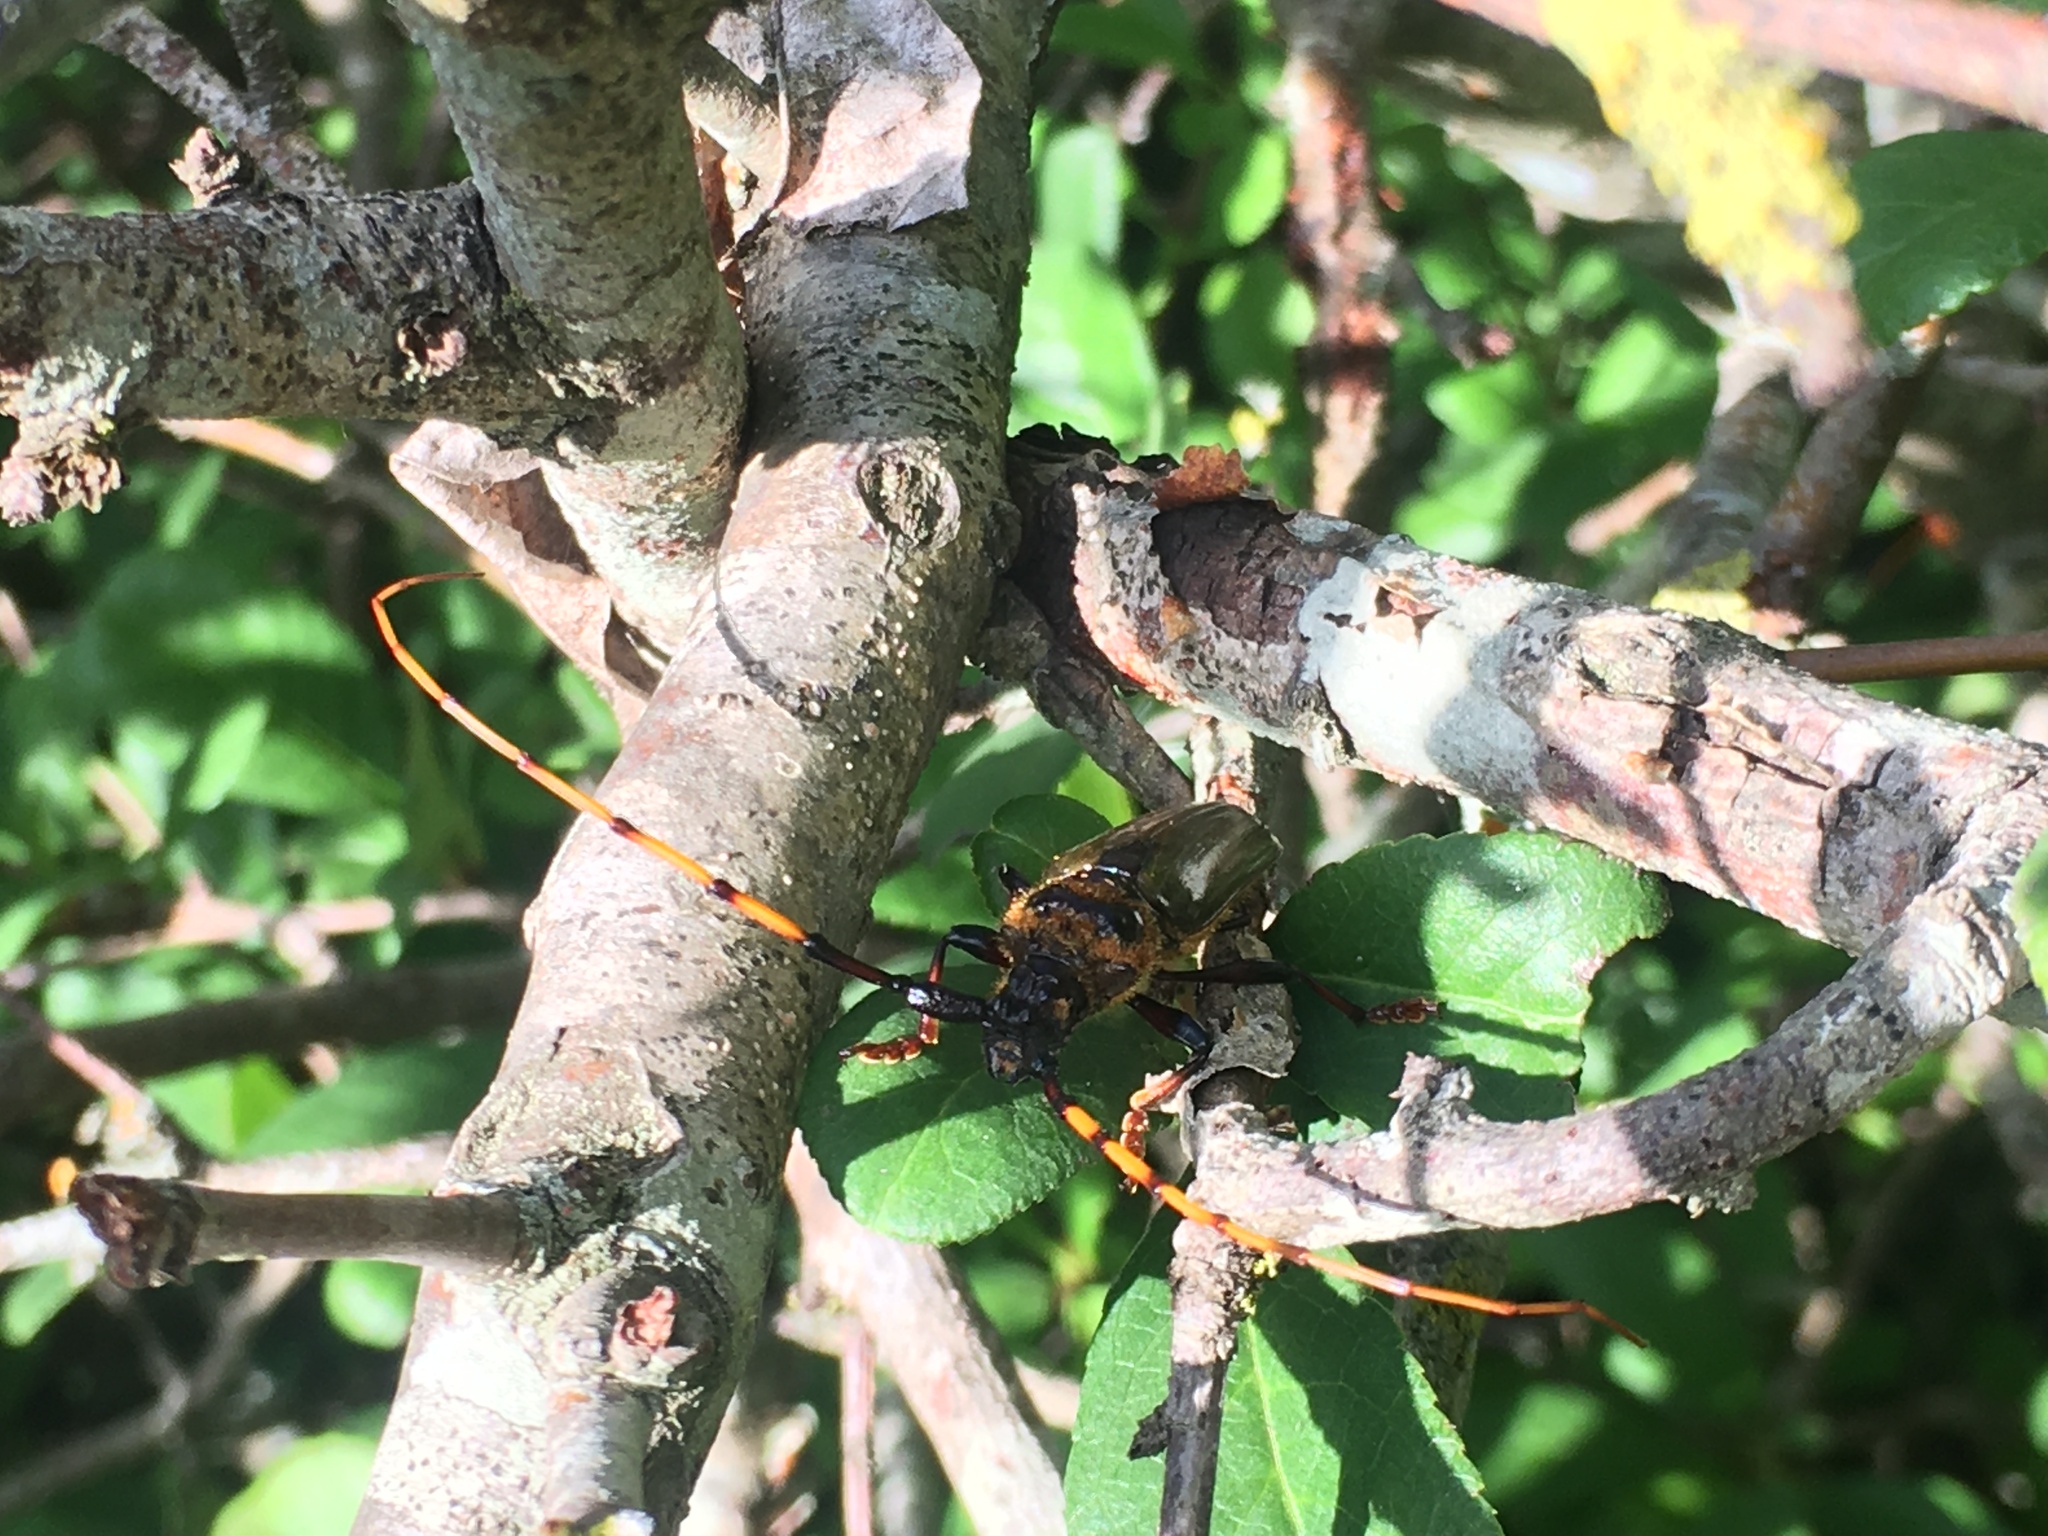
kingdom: Animalia
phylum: Arthropoda
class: Insecta
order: Coleoptera
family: Cerambycidae
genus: Retrachydes
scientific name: Retrachydes thoracicus
